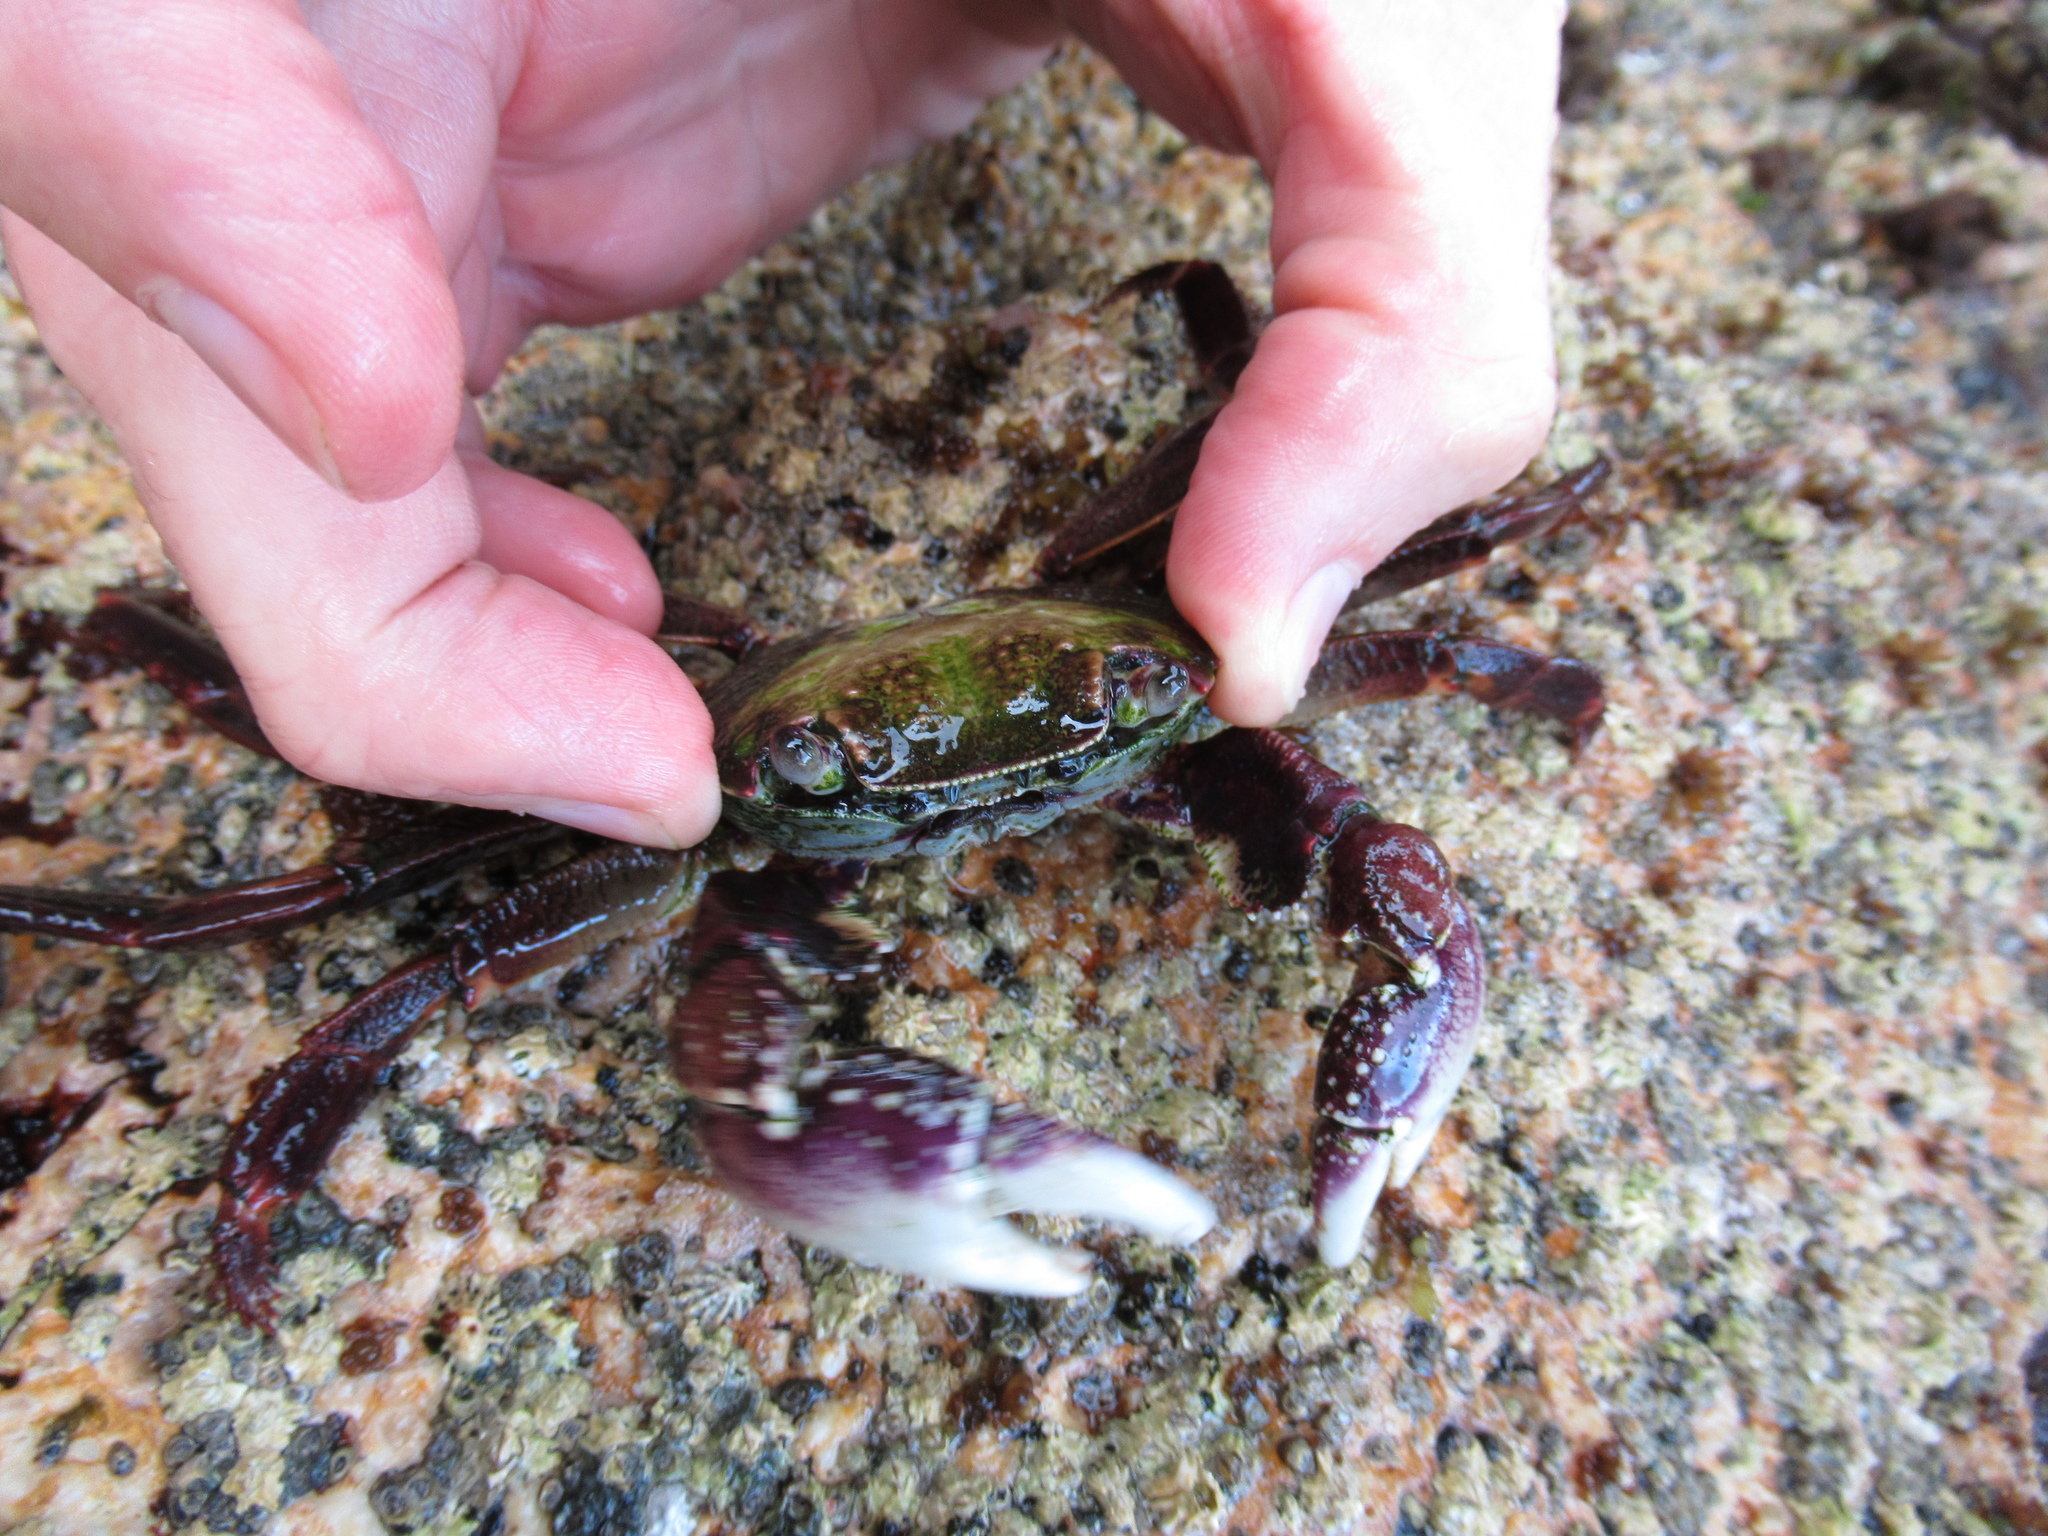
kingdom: Animalia
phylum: Arthropoda
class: Malacostraca
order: Decapoda
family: Grapsidae
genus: Leptograpsus
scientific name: Leptograpsus variegatus
